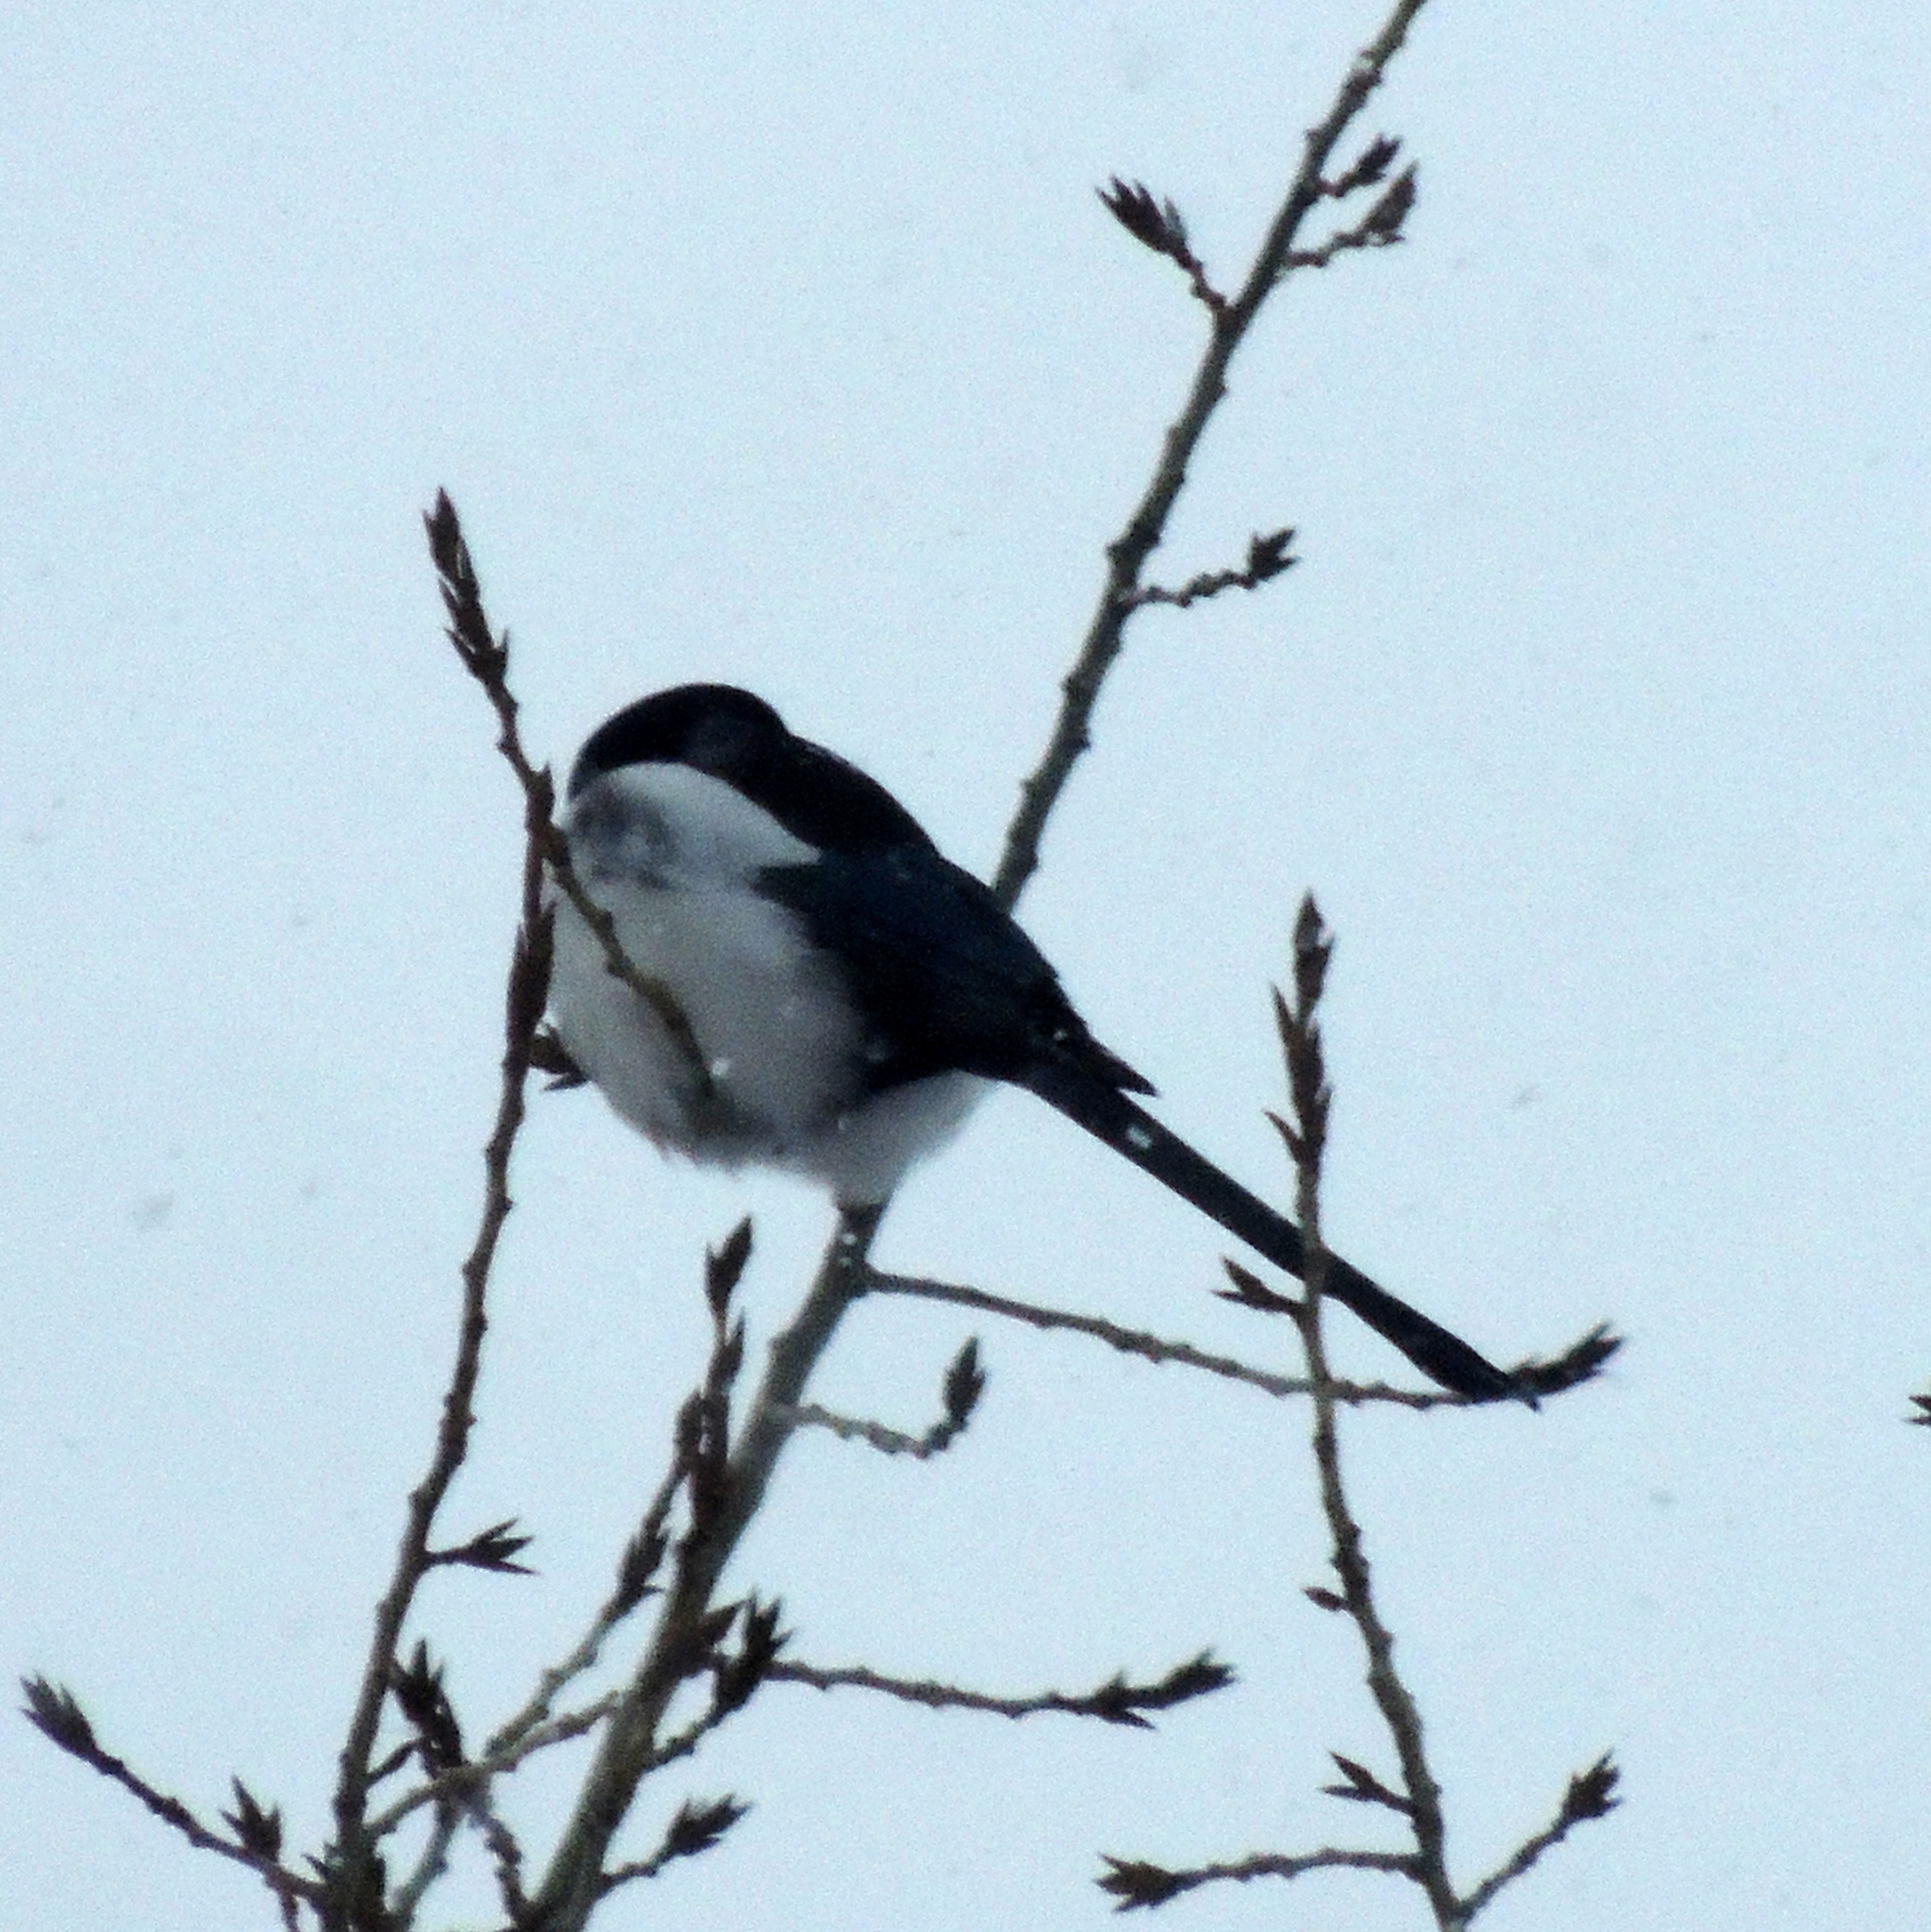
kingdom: Animalia
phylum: Chordata
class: Aves
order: Passeriformes
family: Corvidae
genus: Pica
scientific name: Pica pica
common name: Eurasian magpie
